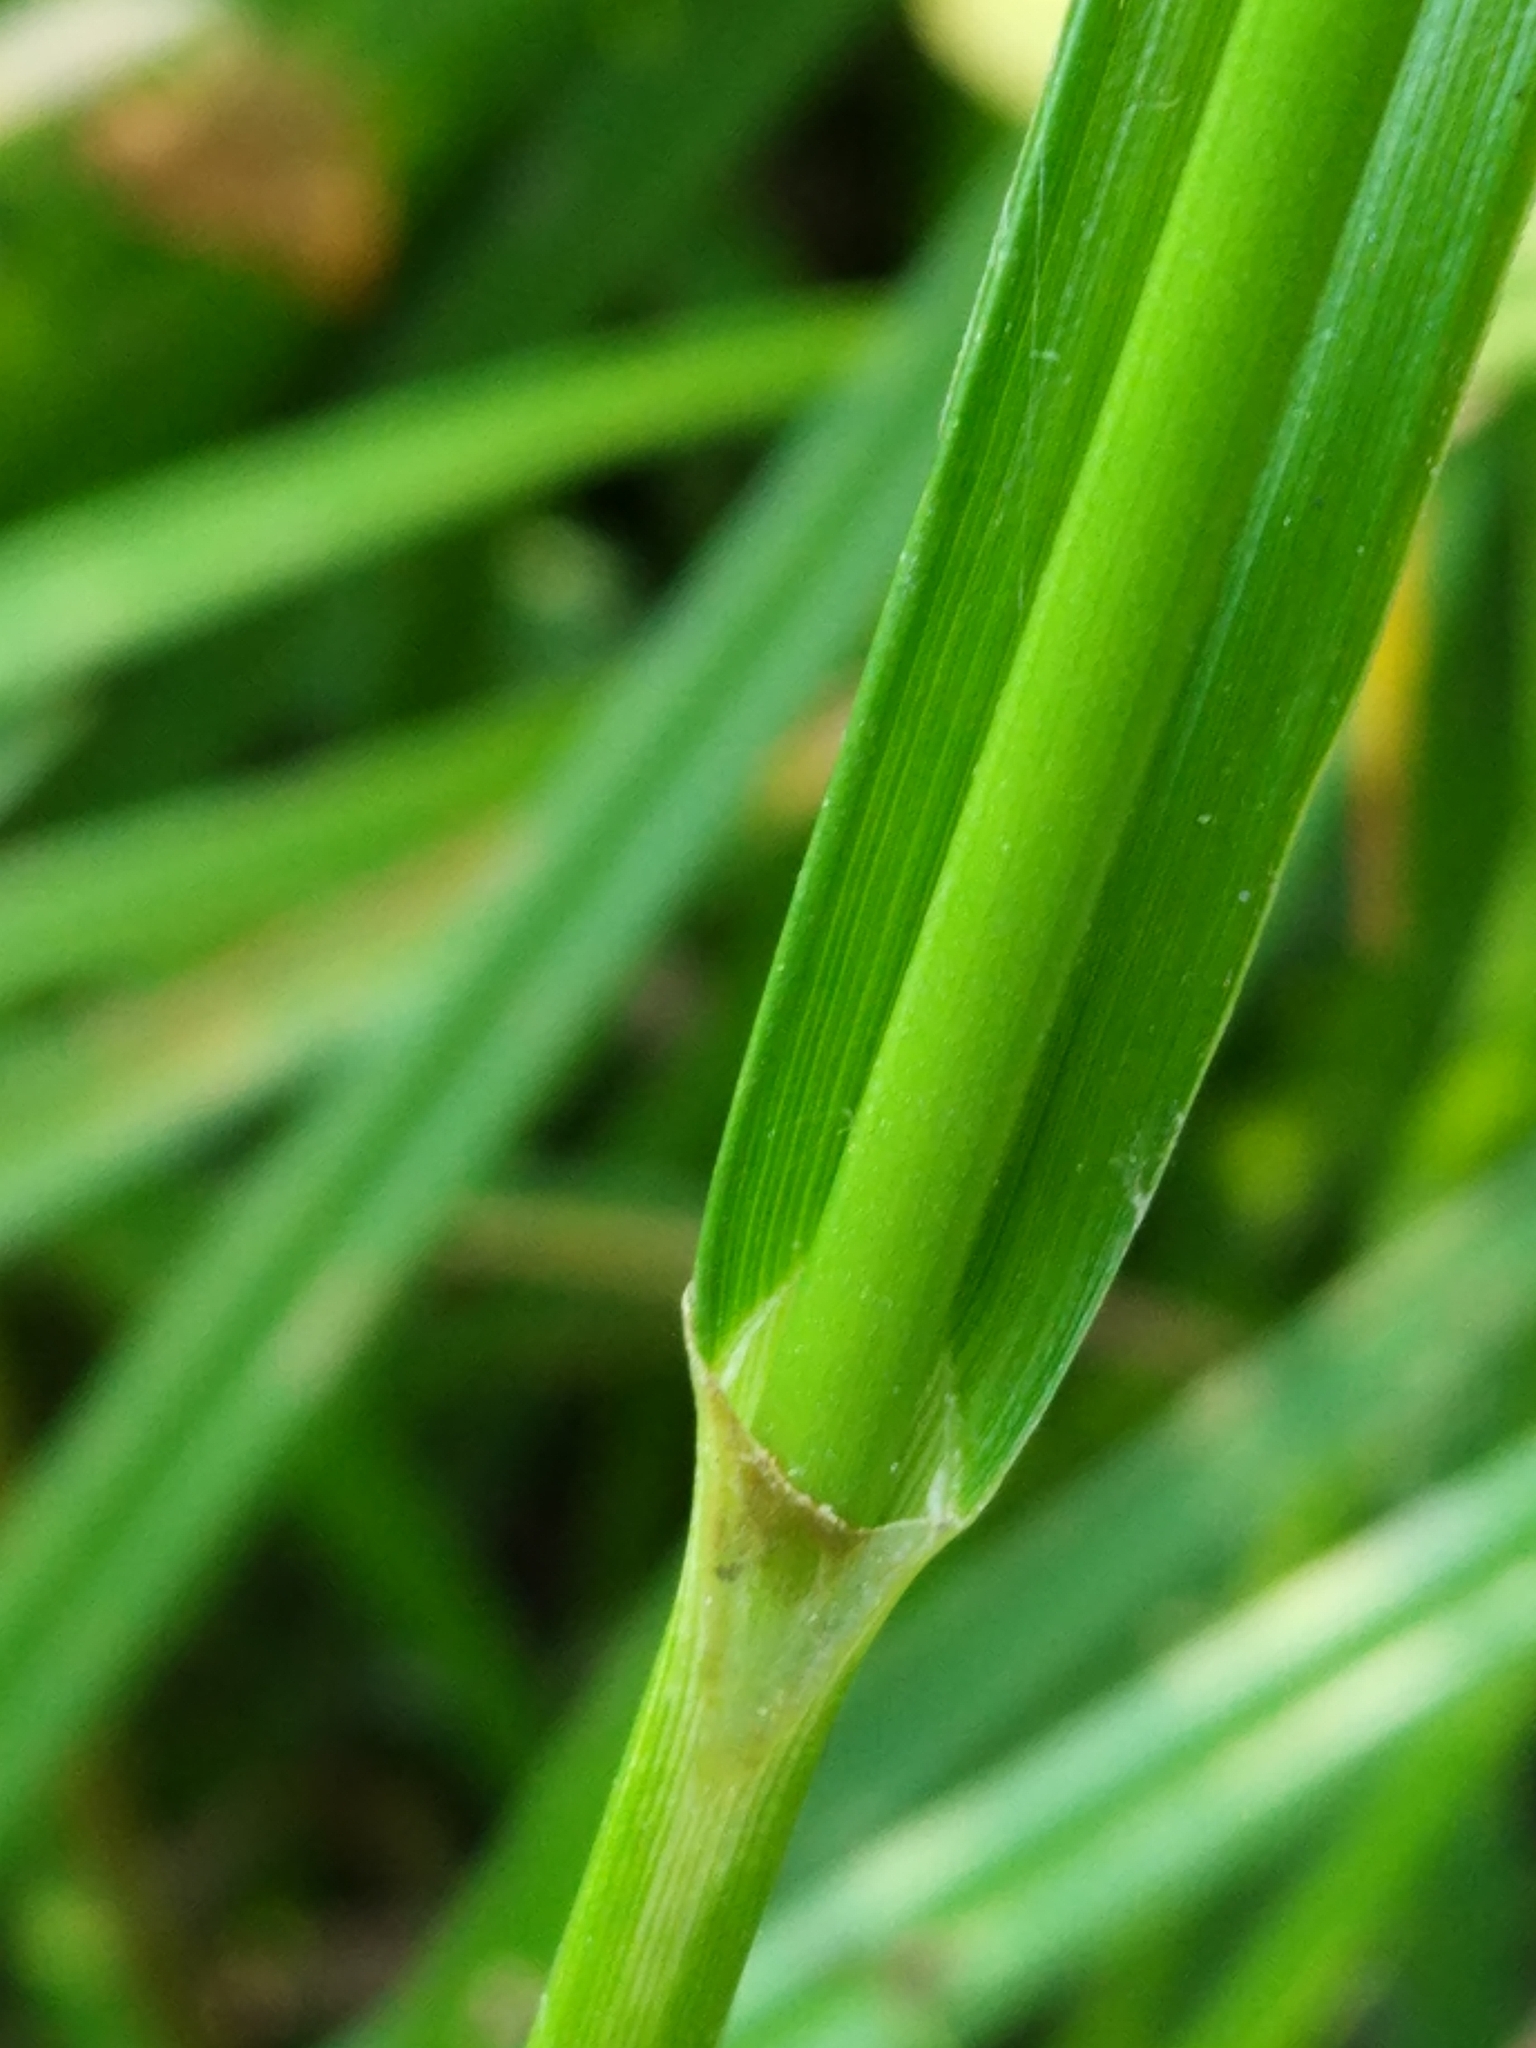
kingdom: Plantae
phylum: Tracheophyta
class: Liliopsida
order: Poales
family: Cyperaceae
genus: Scirpus
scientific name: Scirpus sylvaticus
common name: Wood club-rush
